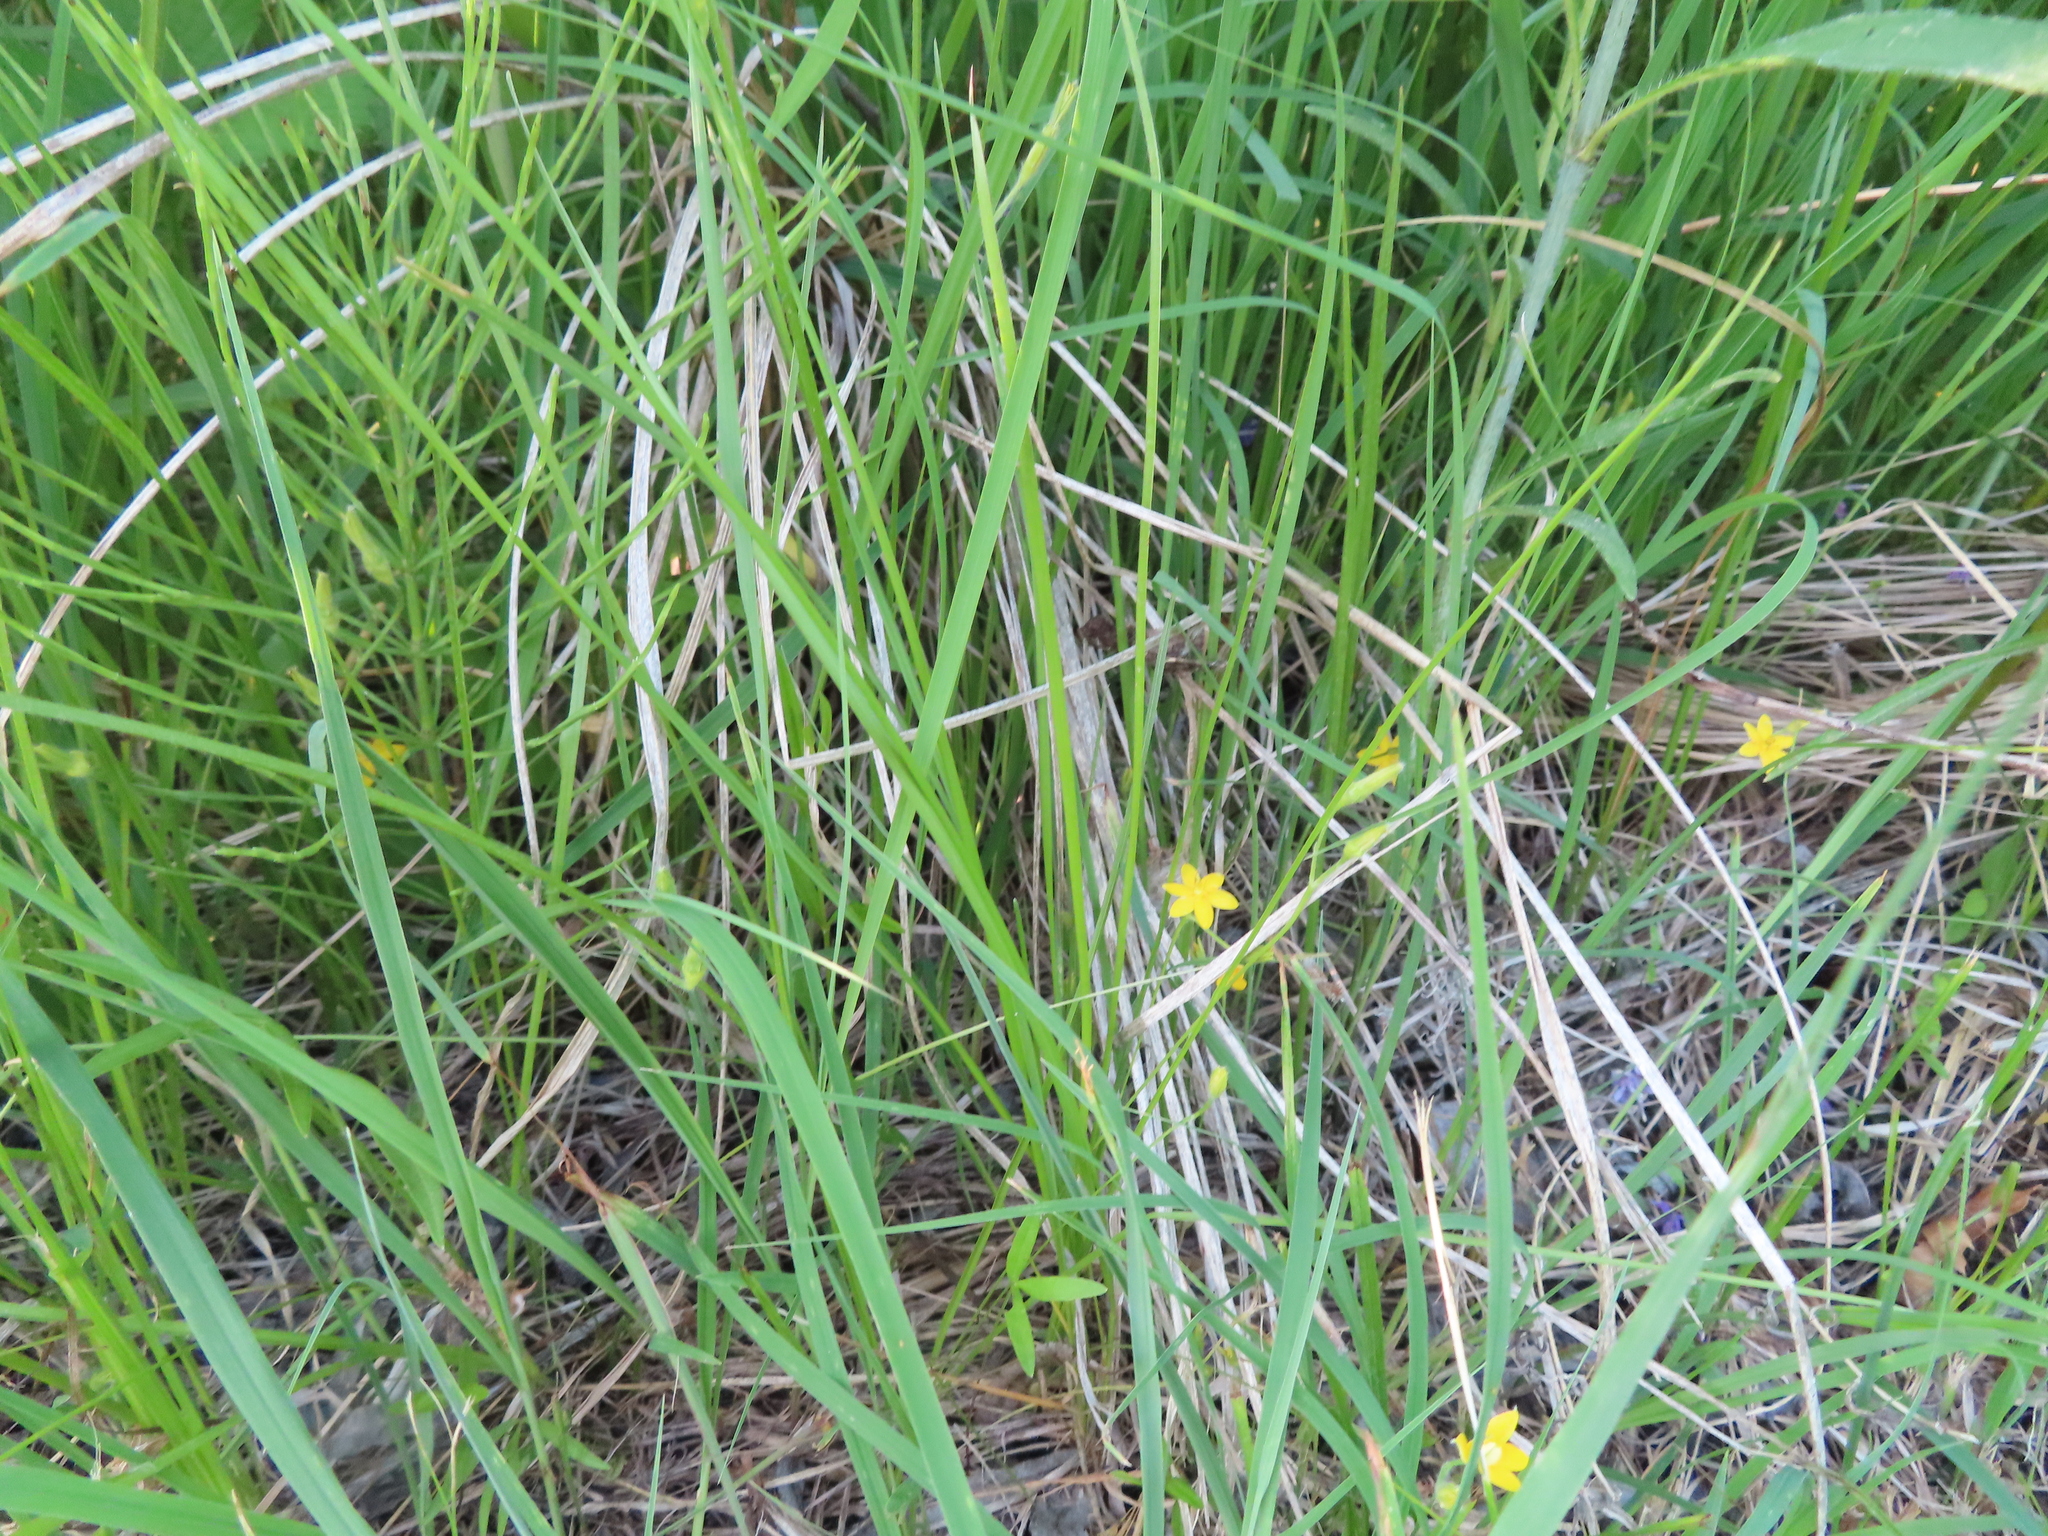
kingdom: Plantae
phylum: Tracheophyta
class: Liliopsida
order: Asparagales
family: Hypoxidaceae
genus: Hypoxis
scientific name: Hypoxis hirsuta
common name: Common goldstar
